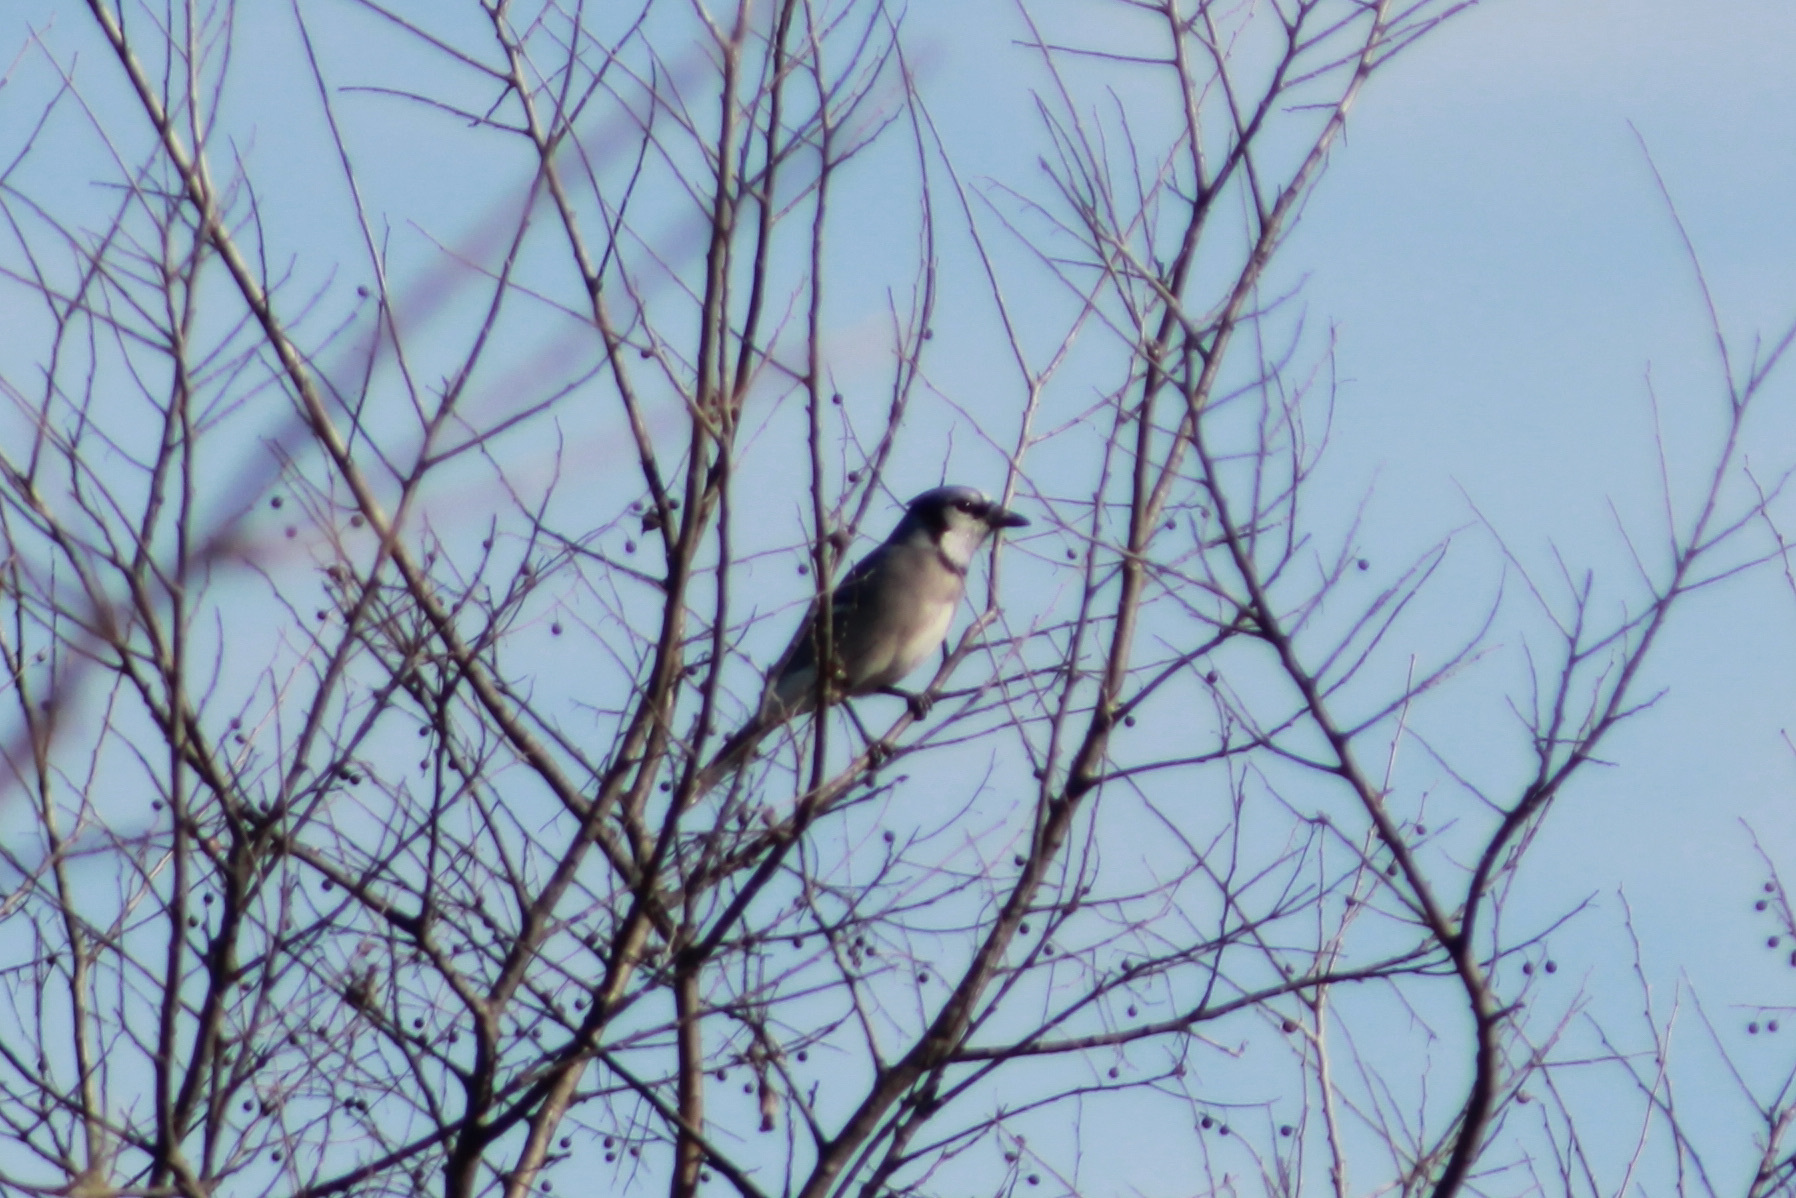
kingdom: Animalia
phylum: Chordata
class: Aves
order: Passeriformes
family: Corvidae
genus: Cyanocitta
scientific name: Cyanocitta cristata
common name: Blue jay
